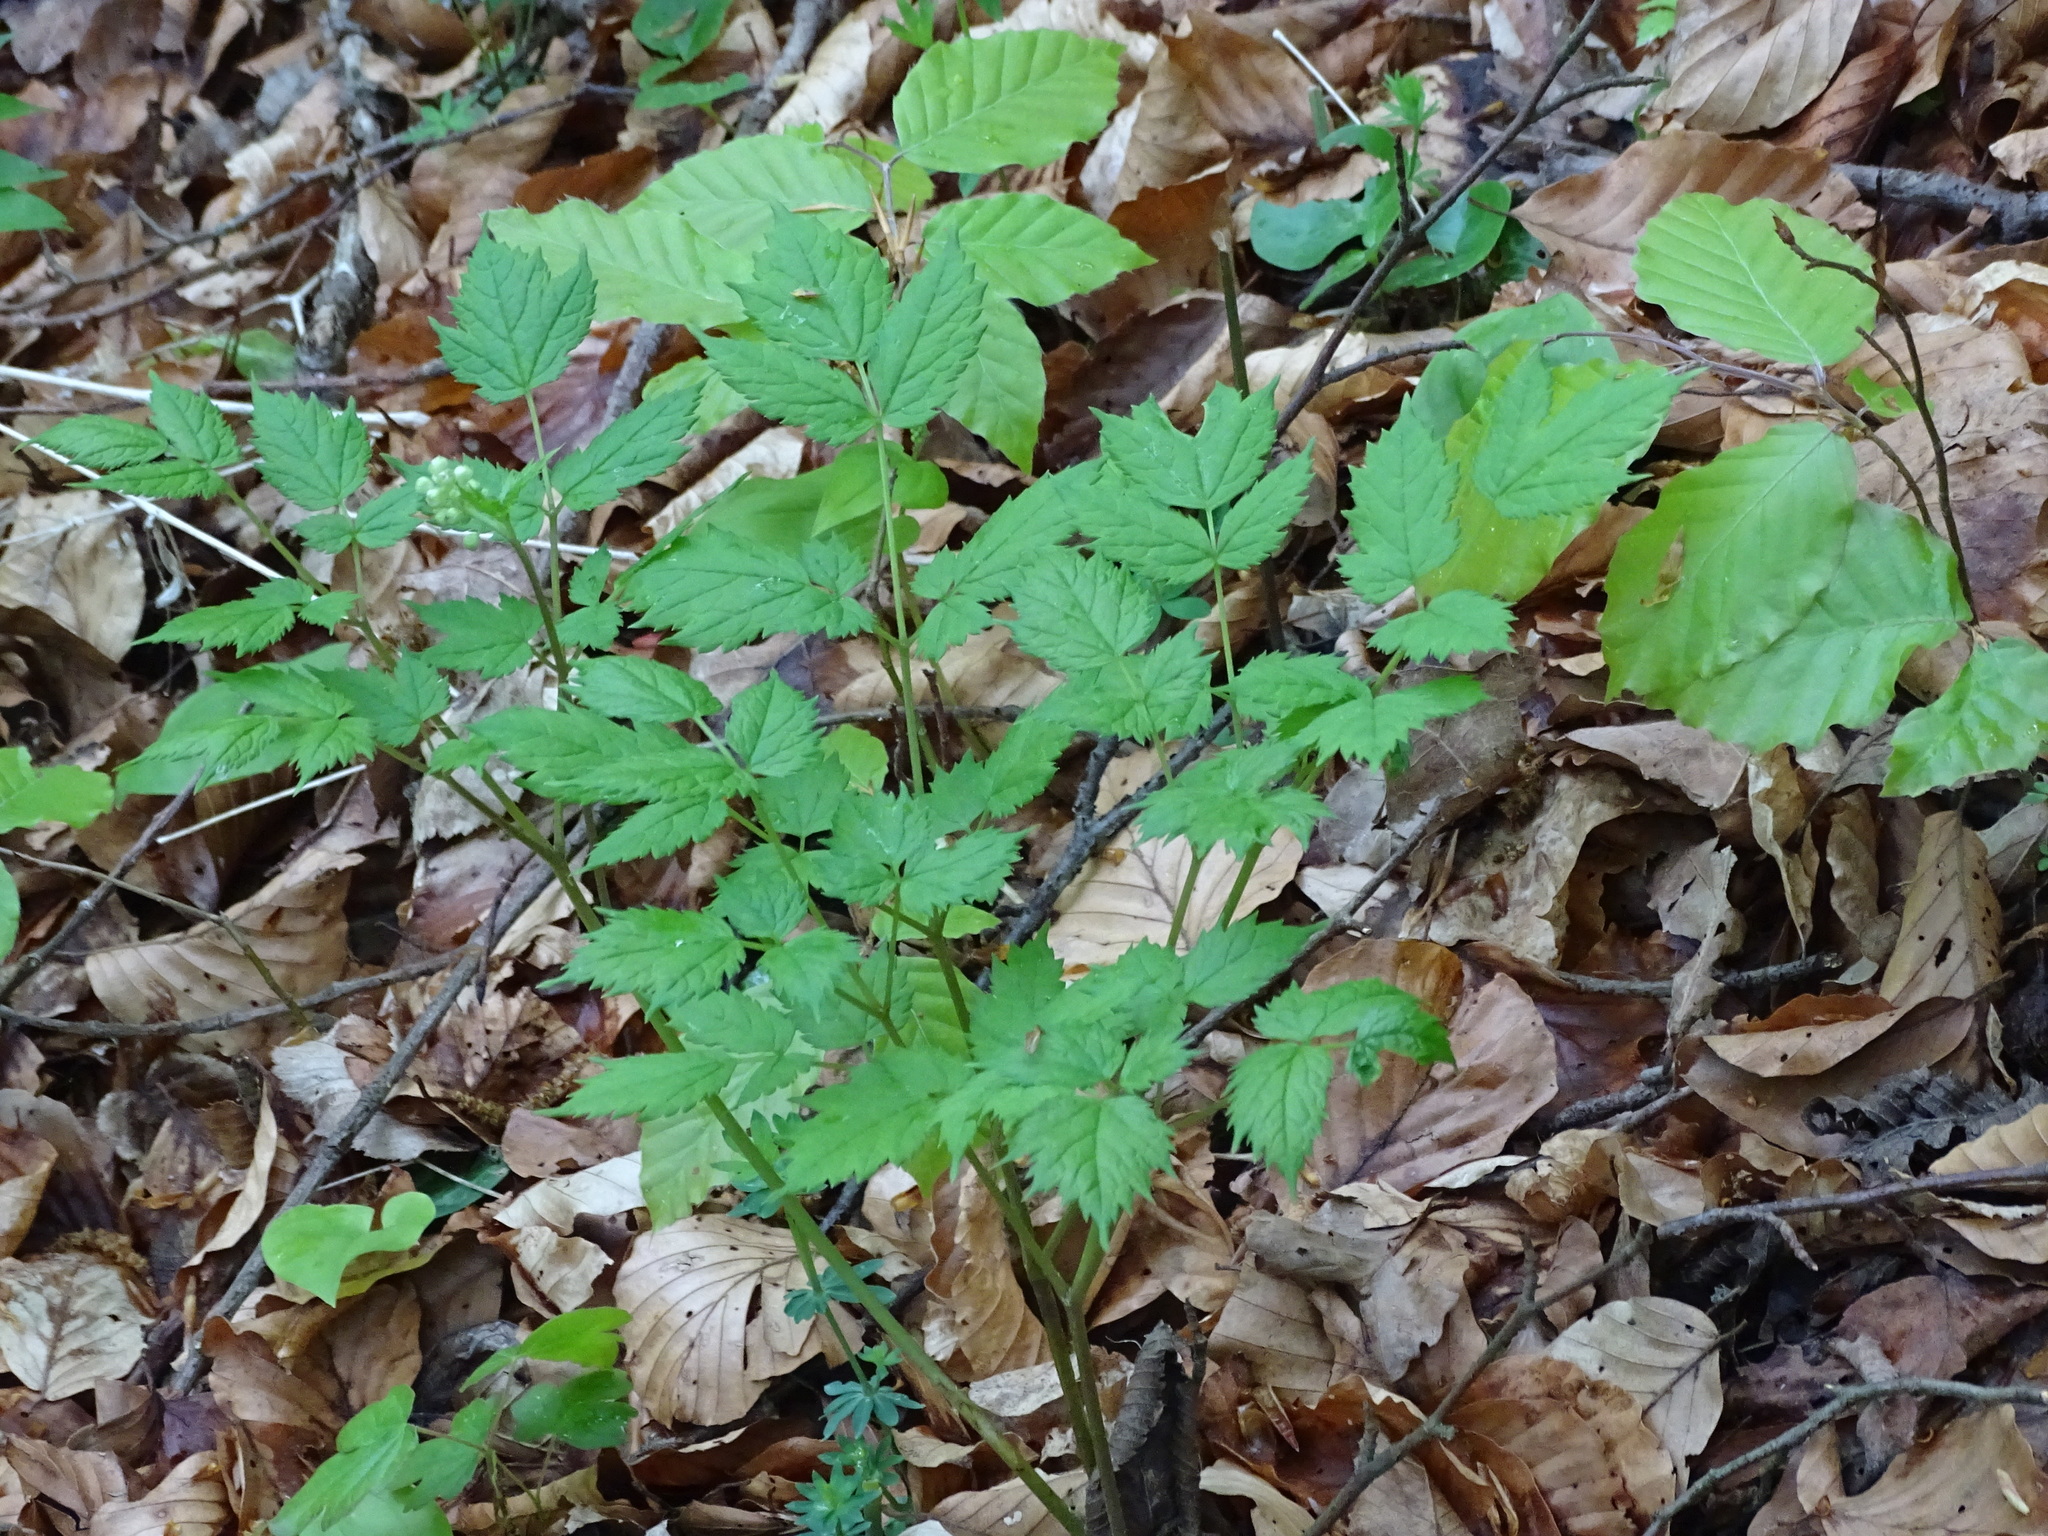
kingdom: Plantae
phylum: Tracheophyta
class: Magnoliopsida
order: Ranunculales
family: Ranunculaceae
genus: Actaea
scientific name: Actaea spicata
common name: Baneberry
